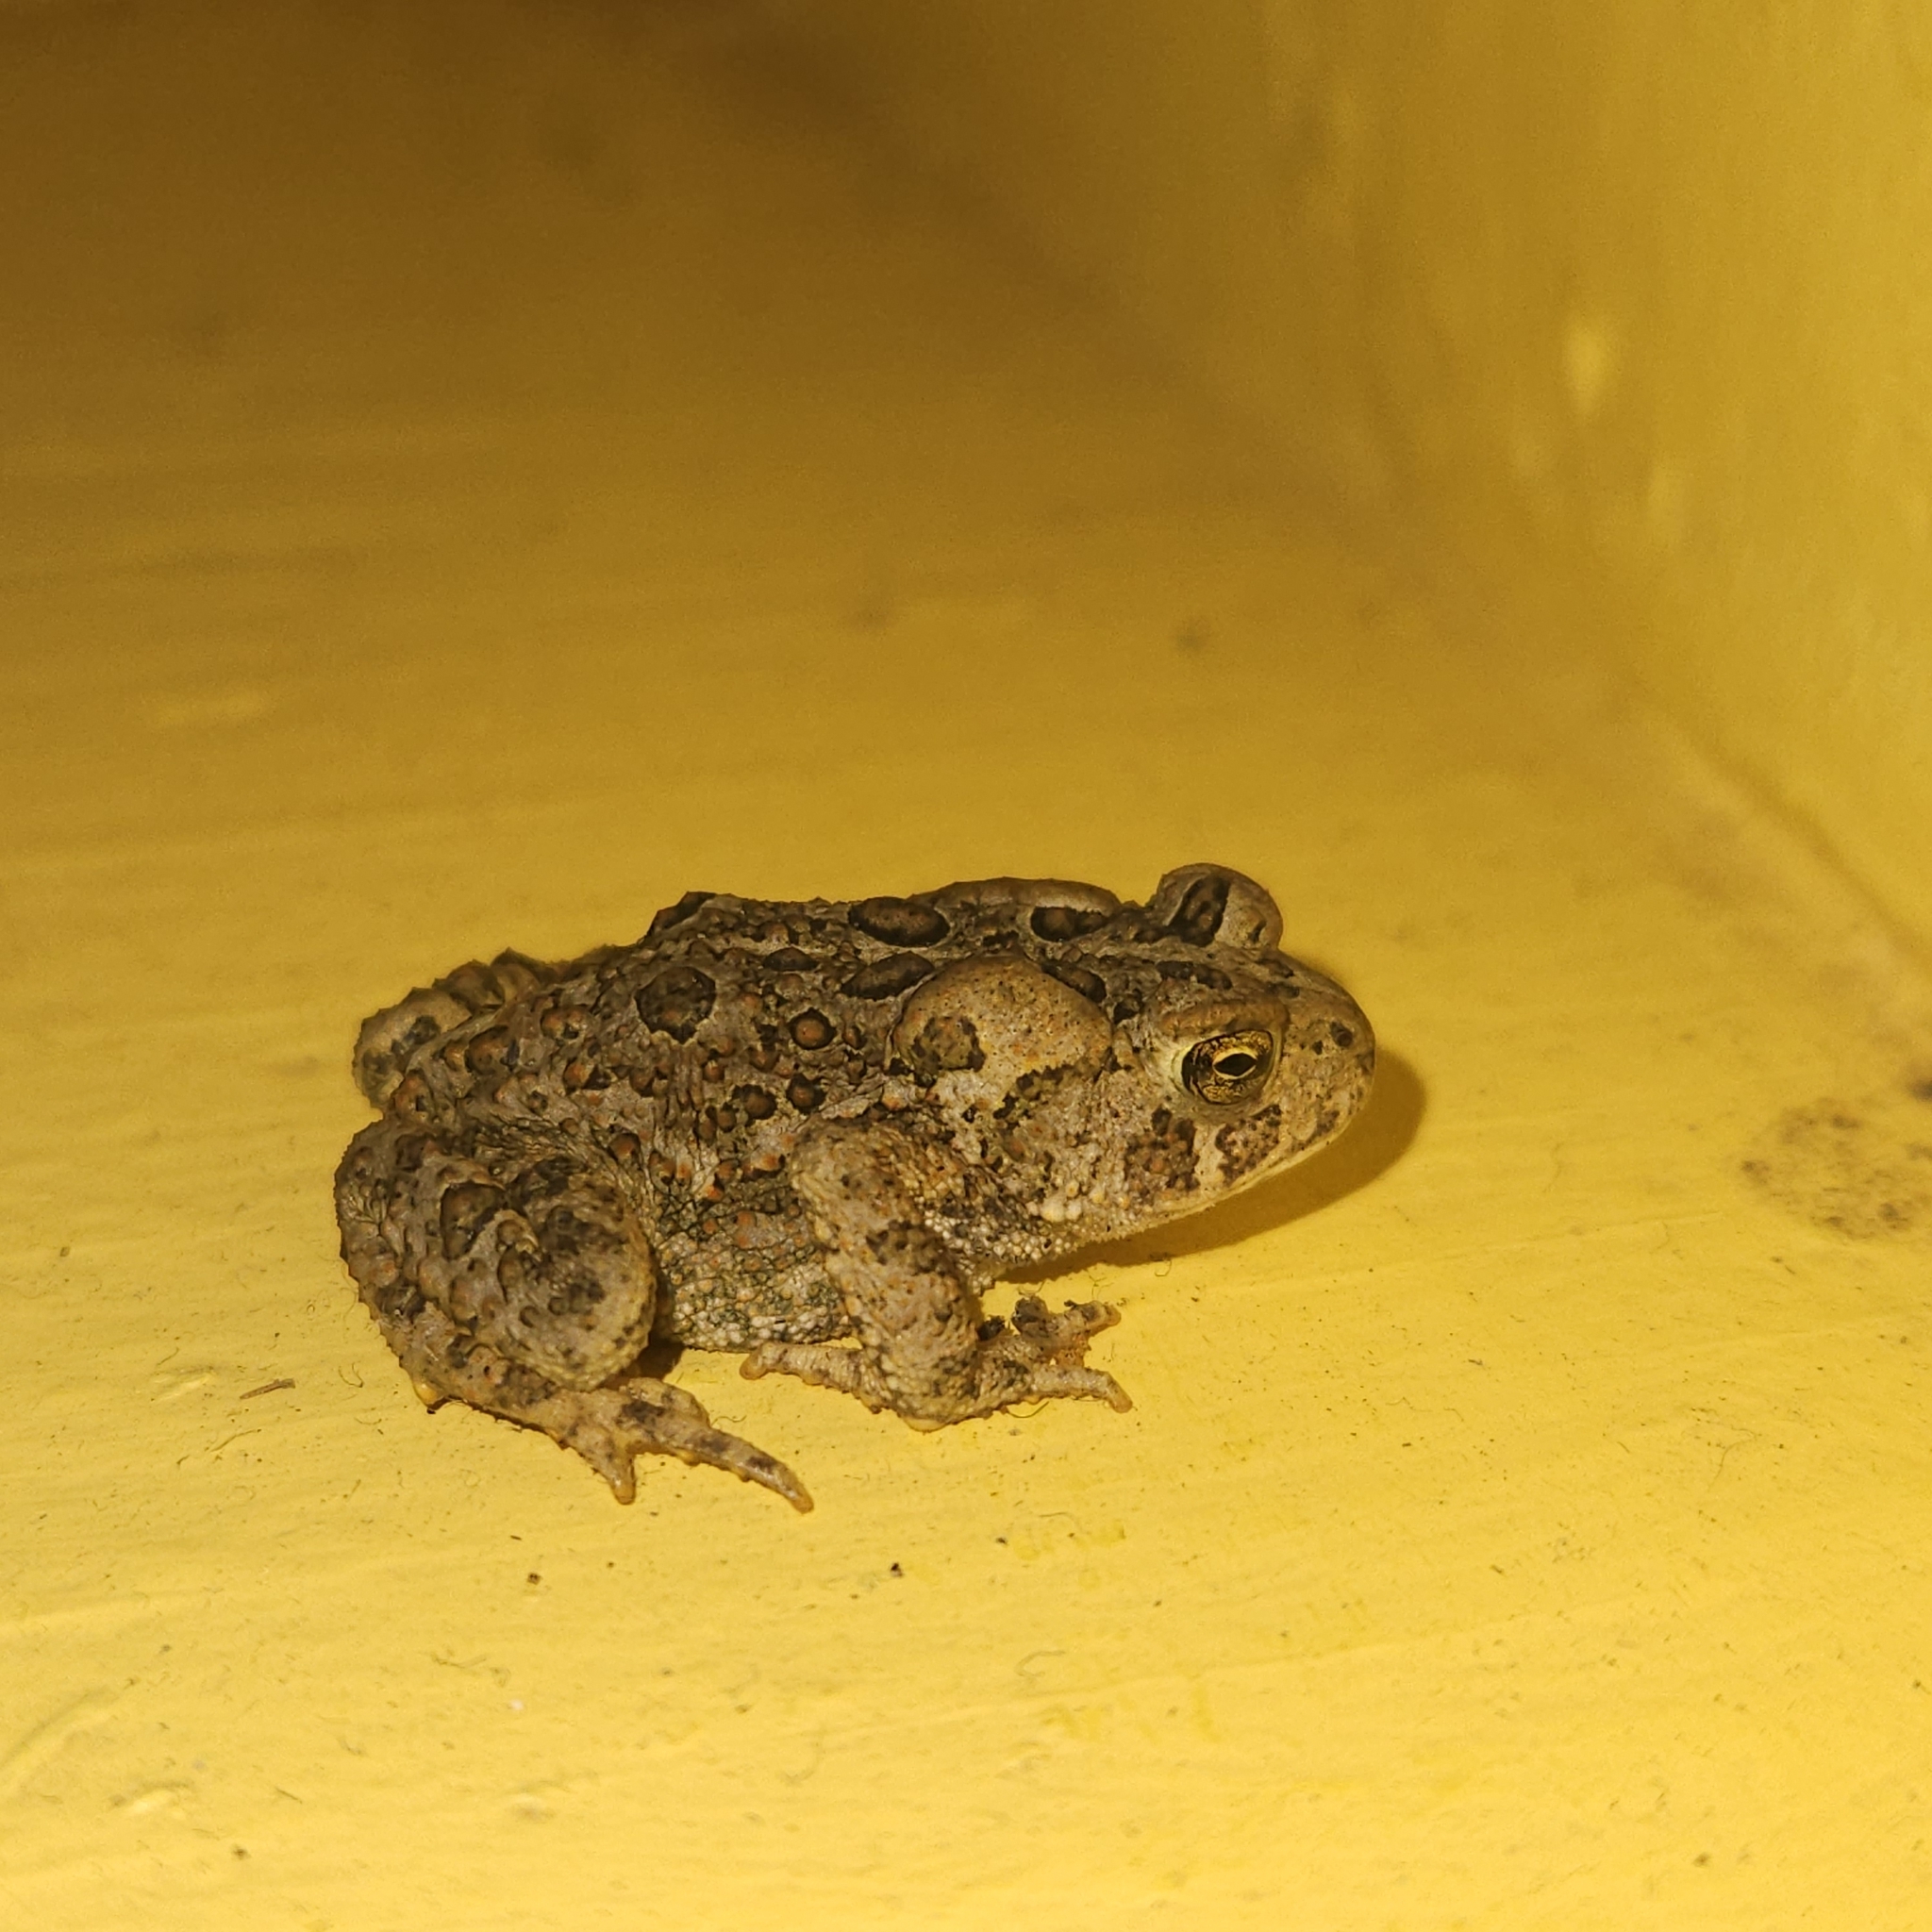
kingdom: Animalia
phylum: Chordata
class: Amphibia
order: Anura
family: Bufonidae
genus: Anaxyrus
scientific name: Anaxyrus americanus
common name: American toad
